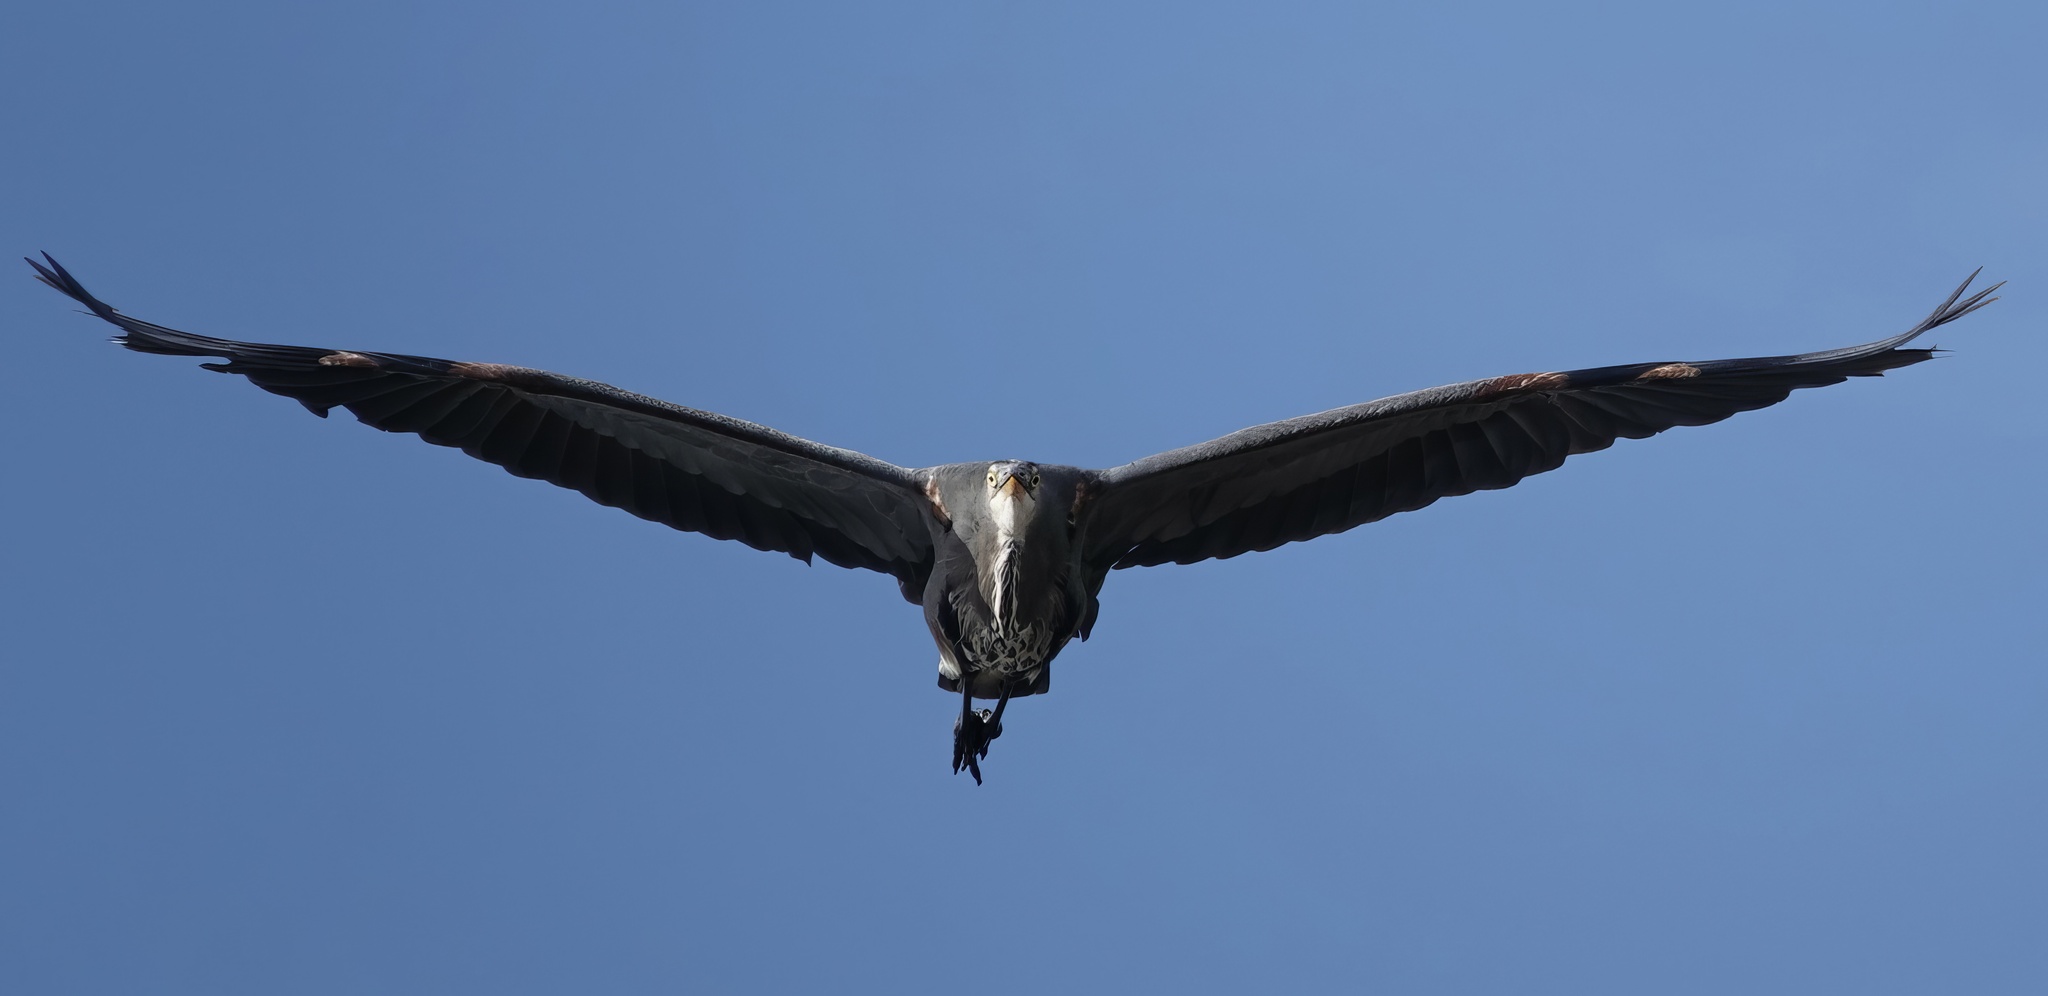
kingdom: Animalia
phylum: Chordata
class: Aves
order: Pelecaniformes
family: Ardeidae
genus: Ardea
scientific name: Ardea herodias
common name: Great blue heron
